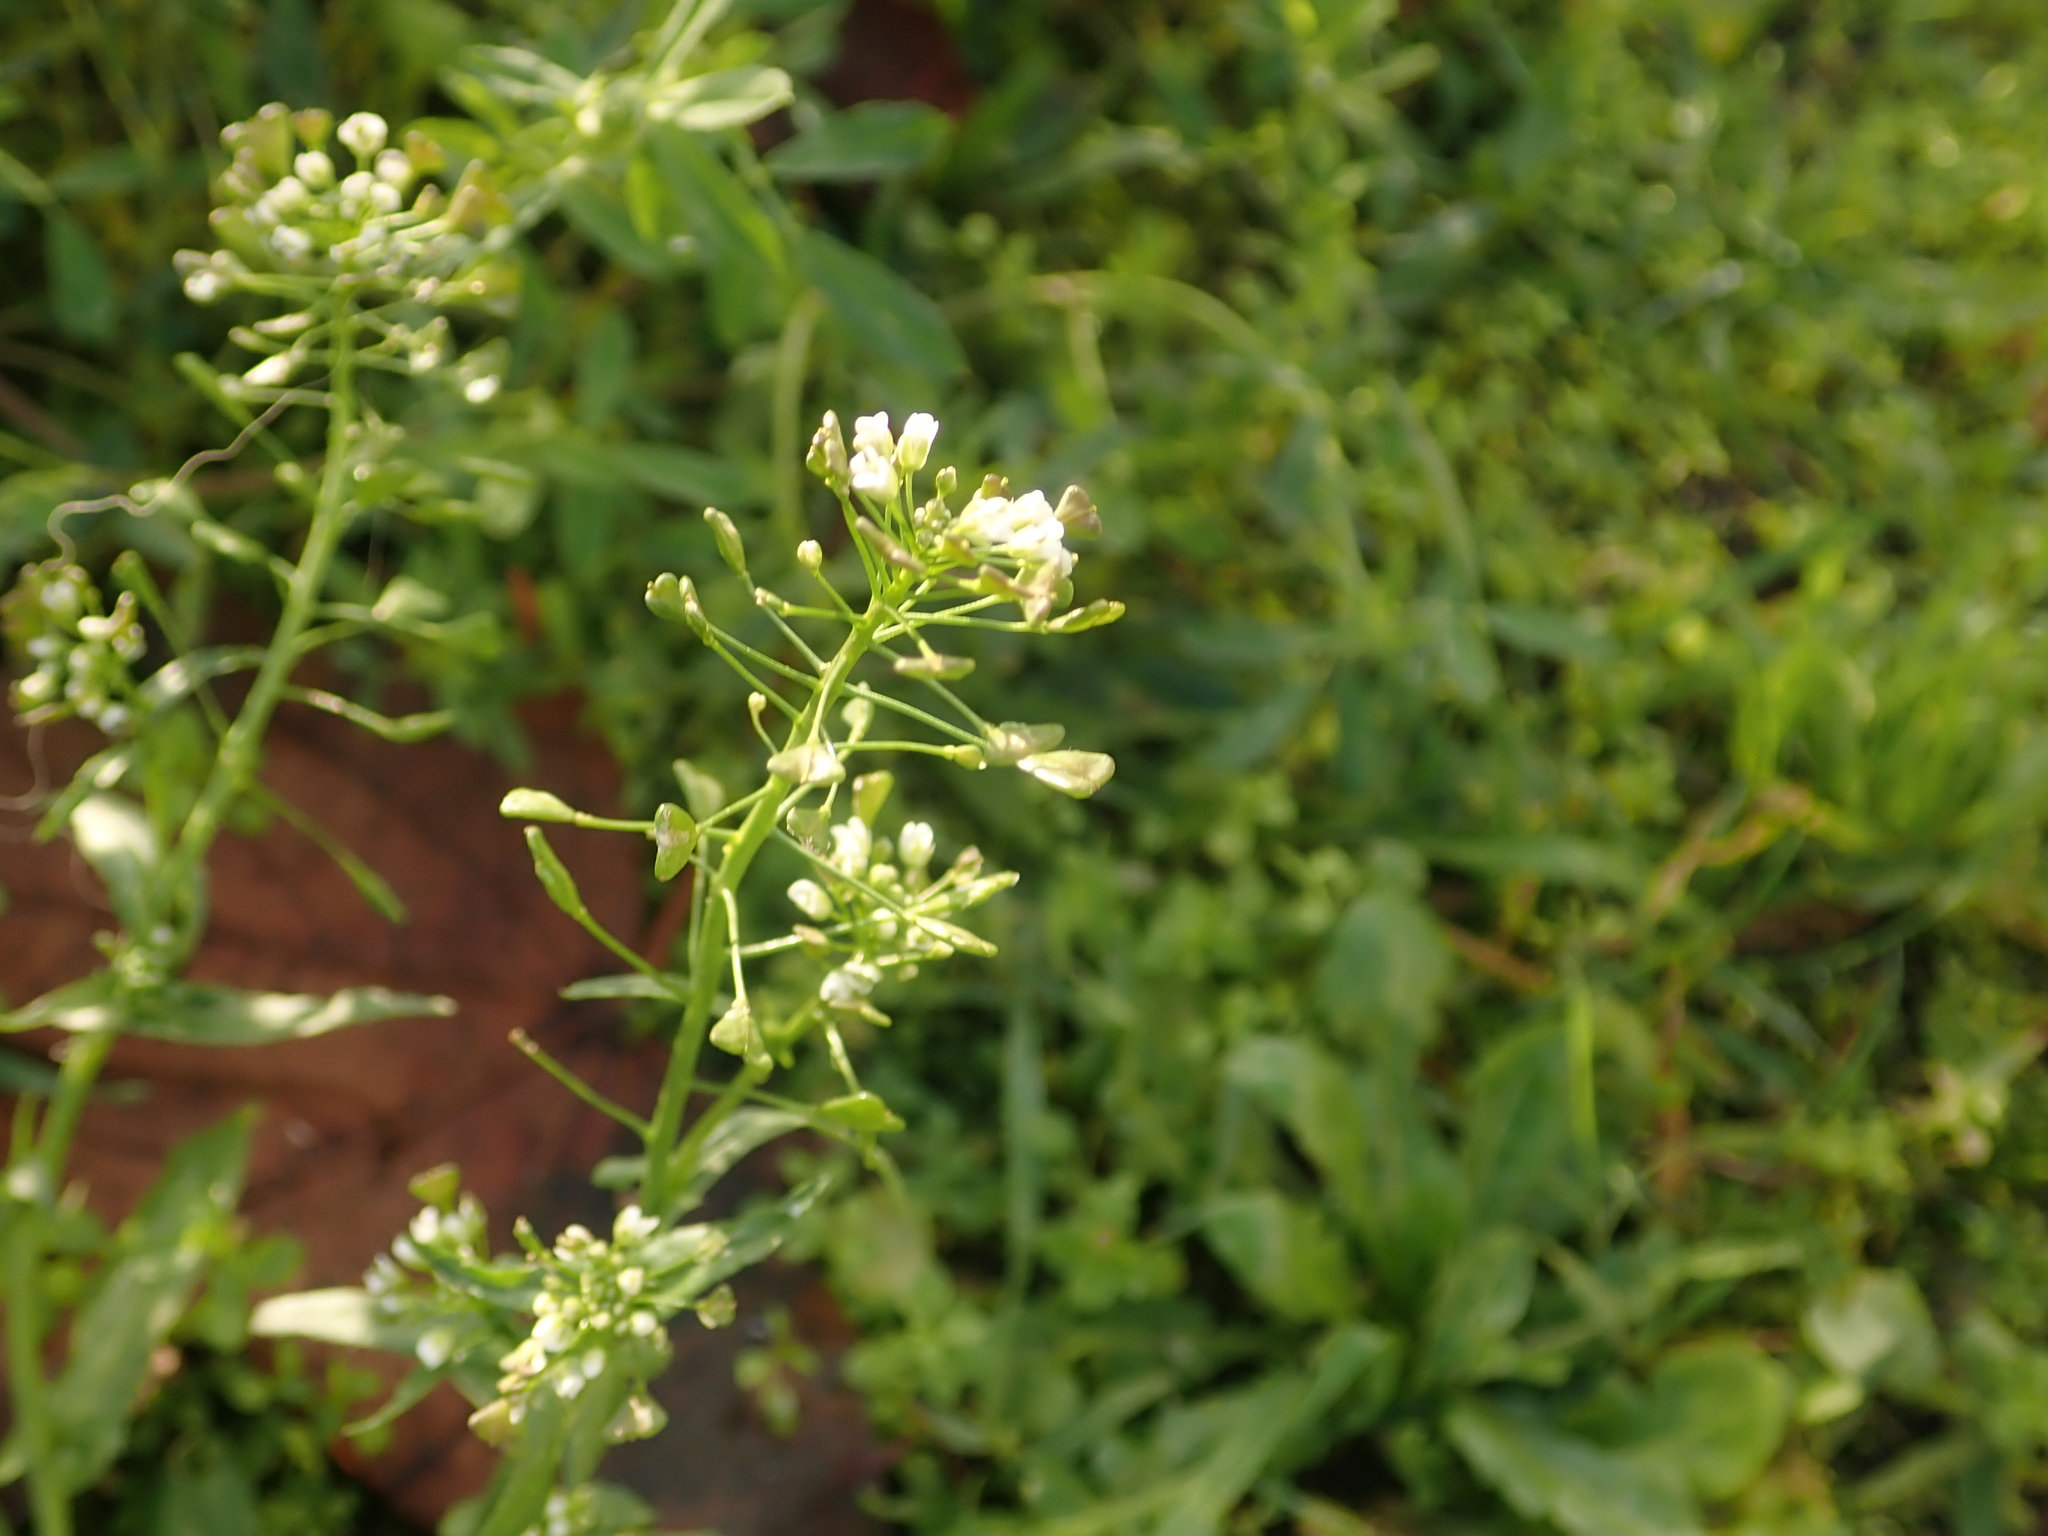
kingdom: Plantae
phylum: Tracheophyta
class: Magnoliopsida
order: Brassicales
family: Brassicaceae
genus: Capsella
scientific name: Capsella bursa-pastoris
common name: Shepherd's purse
